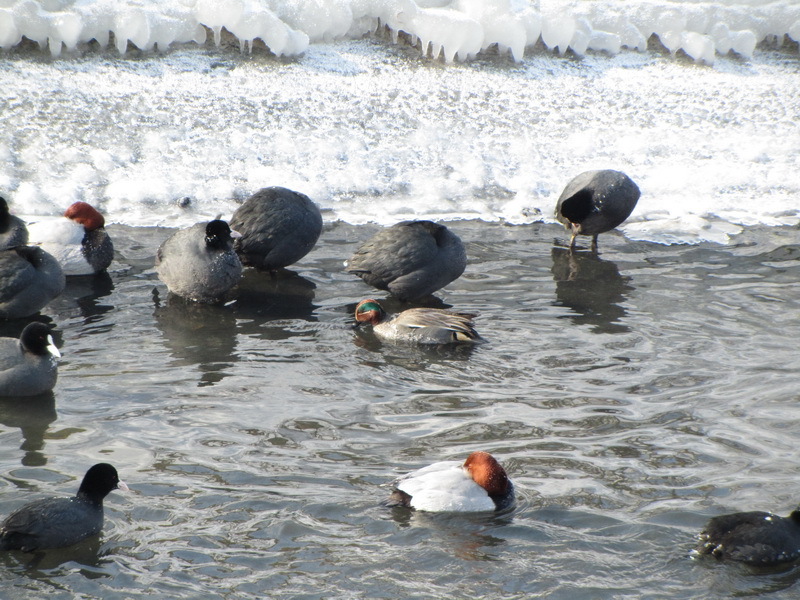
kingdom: Animalia
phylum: Chordata
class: Aves
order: Anseriformes
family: Anatidae
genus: Aythya
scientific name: Aythya ferina
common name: Common pochard
